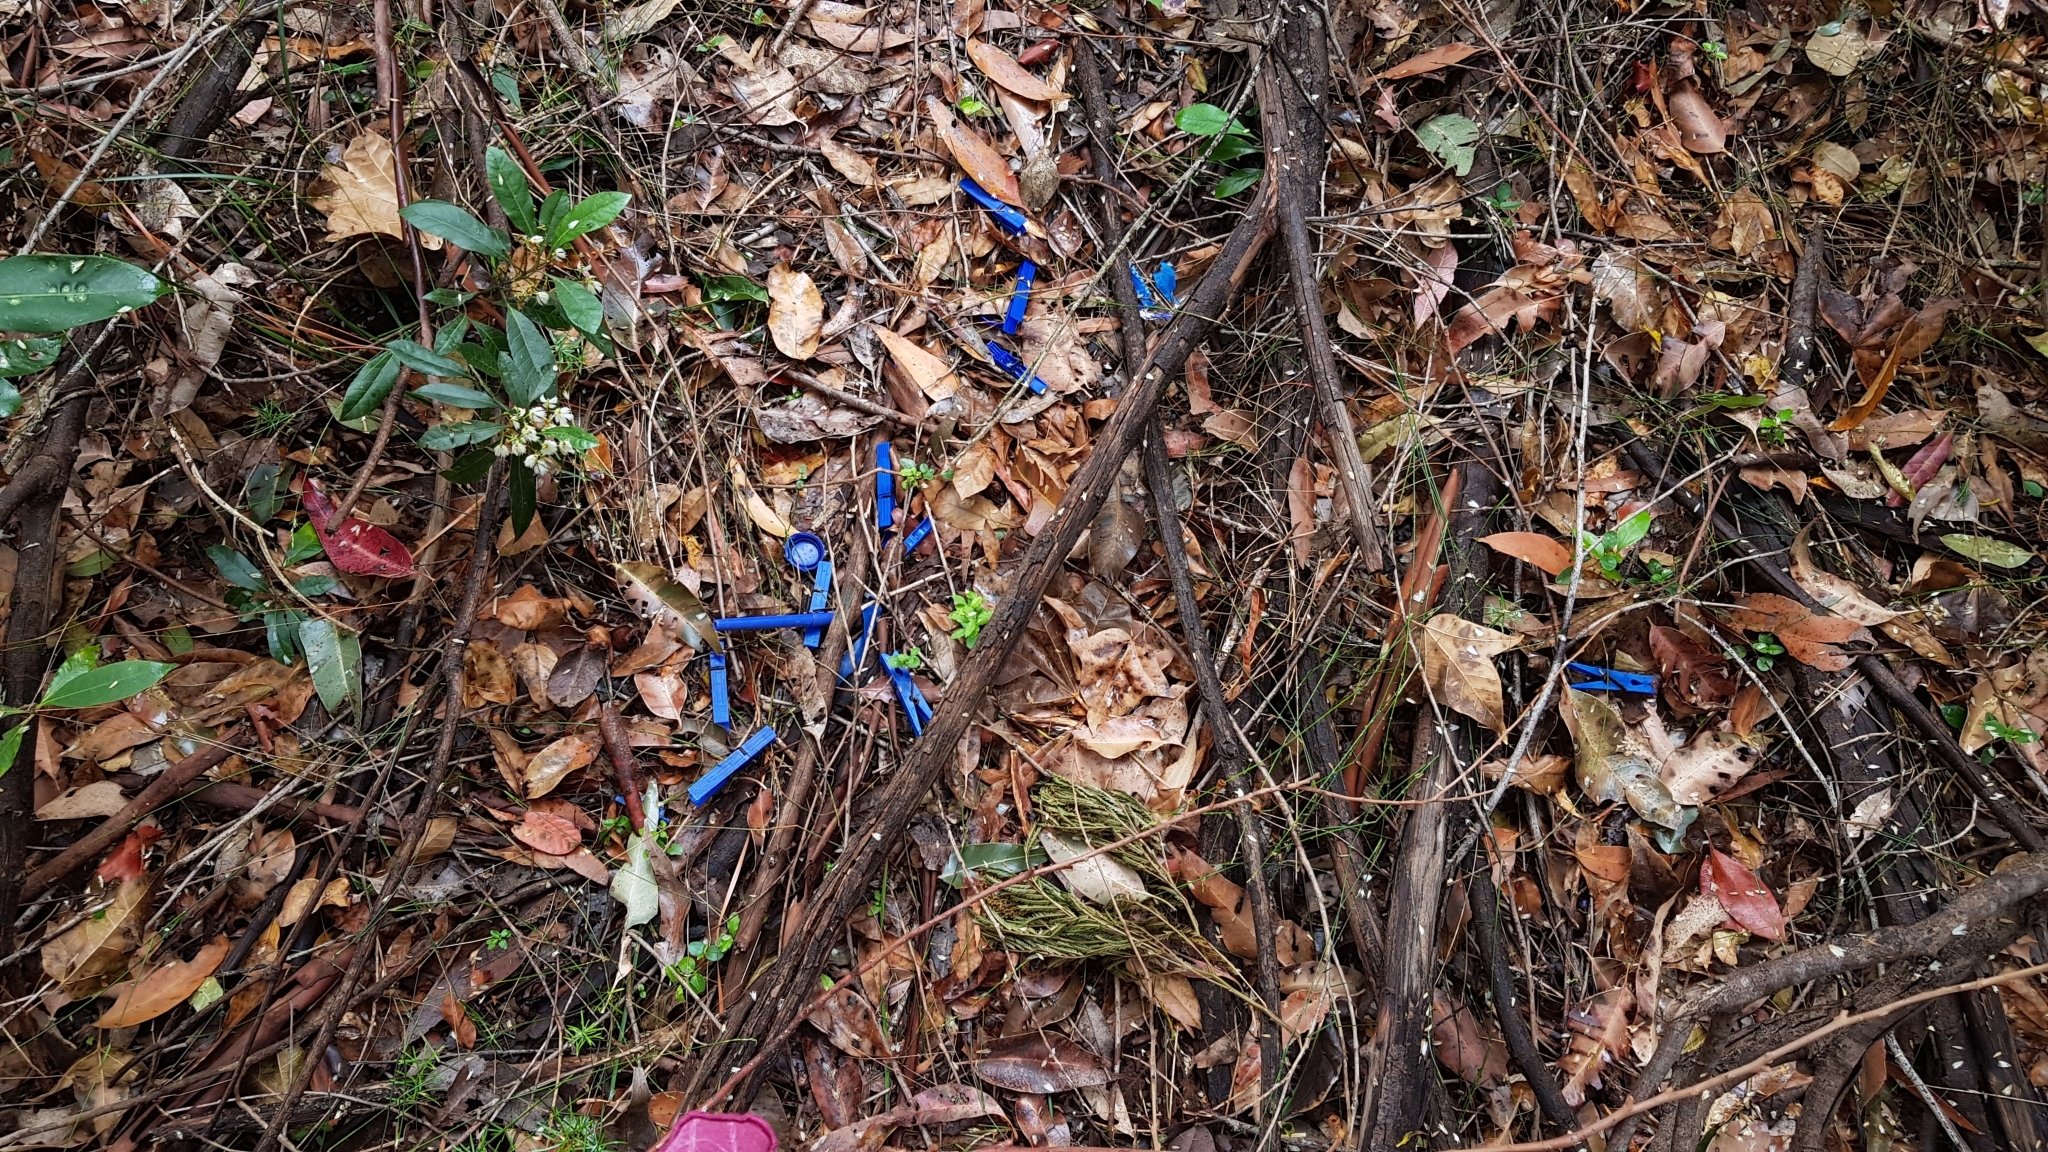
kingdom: Animalia
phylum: Chordata
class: Aves
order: Passeriformes
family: Ptilonorhynchidae
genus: Ptilonorhynchus
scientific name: Ptilonorhynchus violaceus
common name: Satin bowerbird
